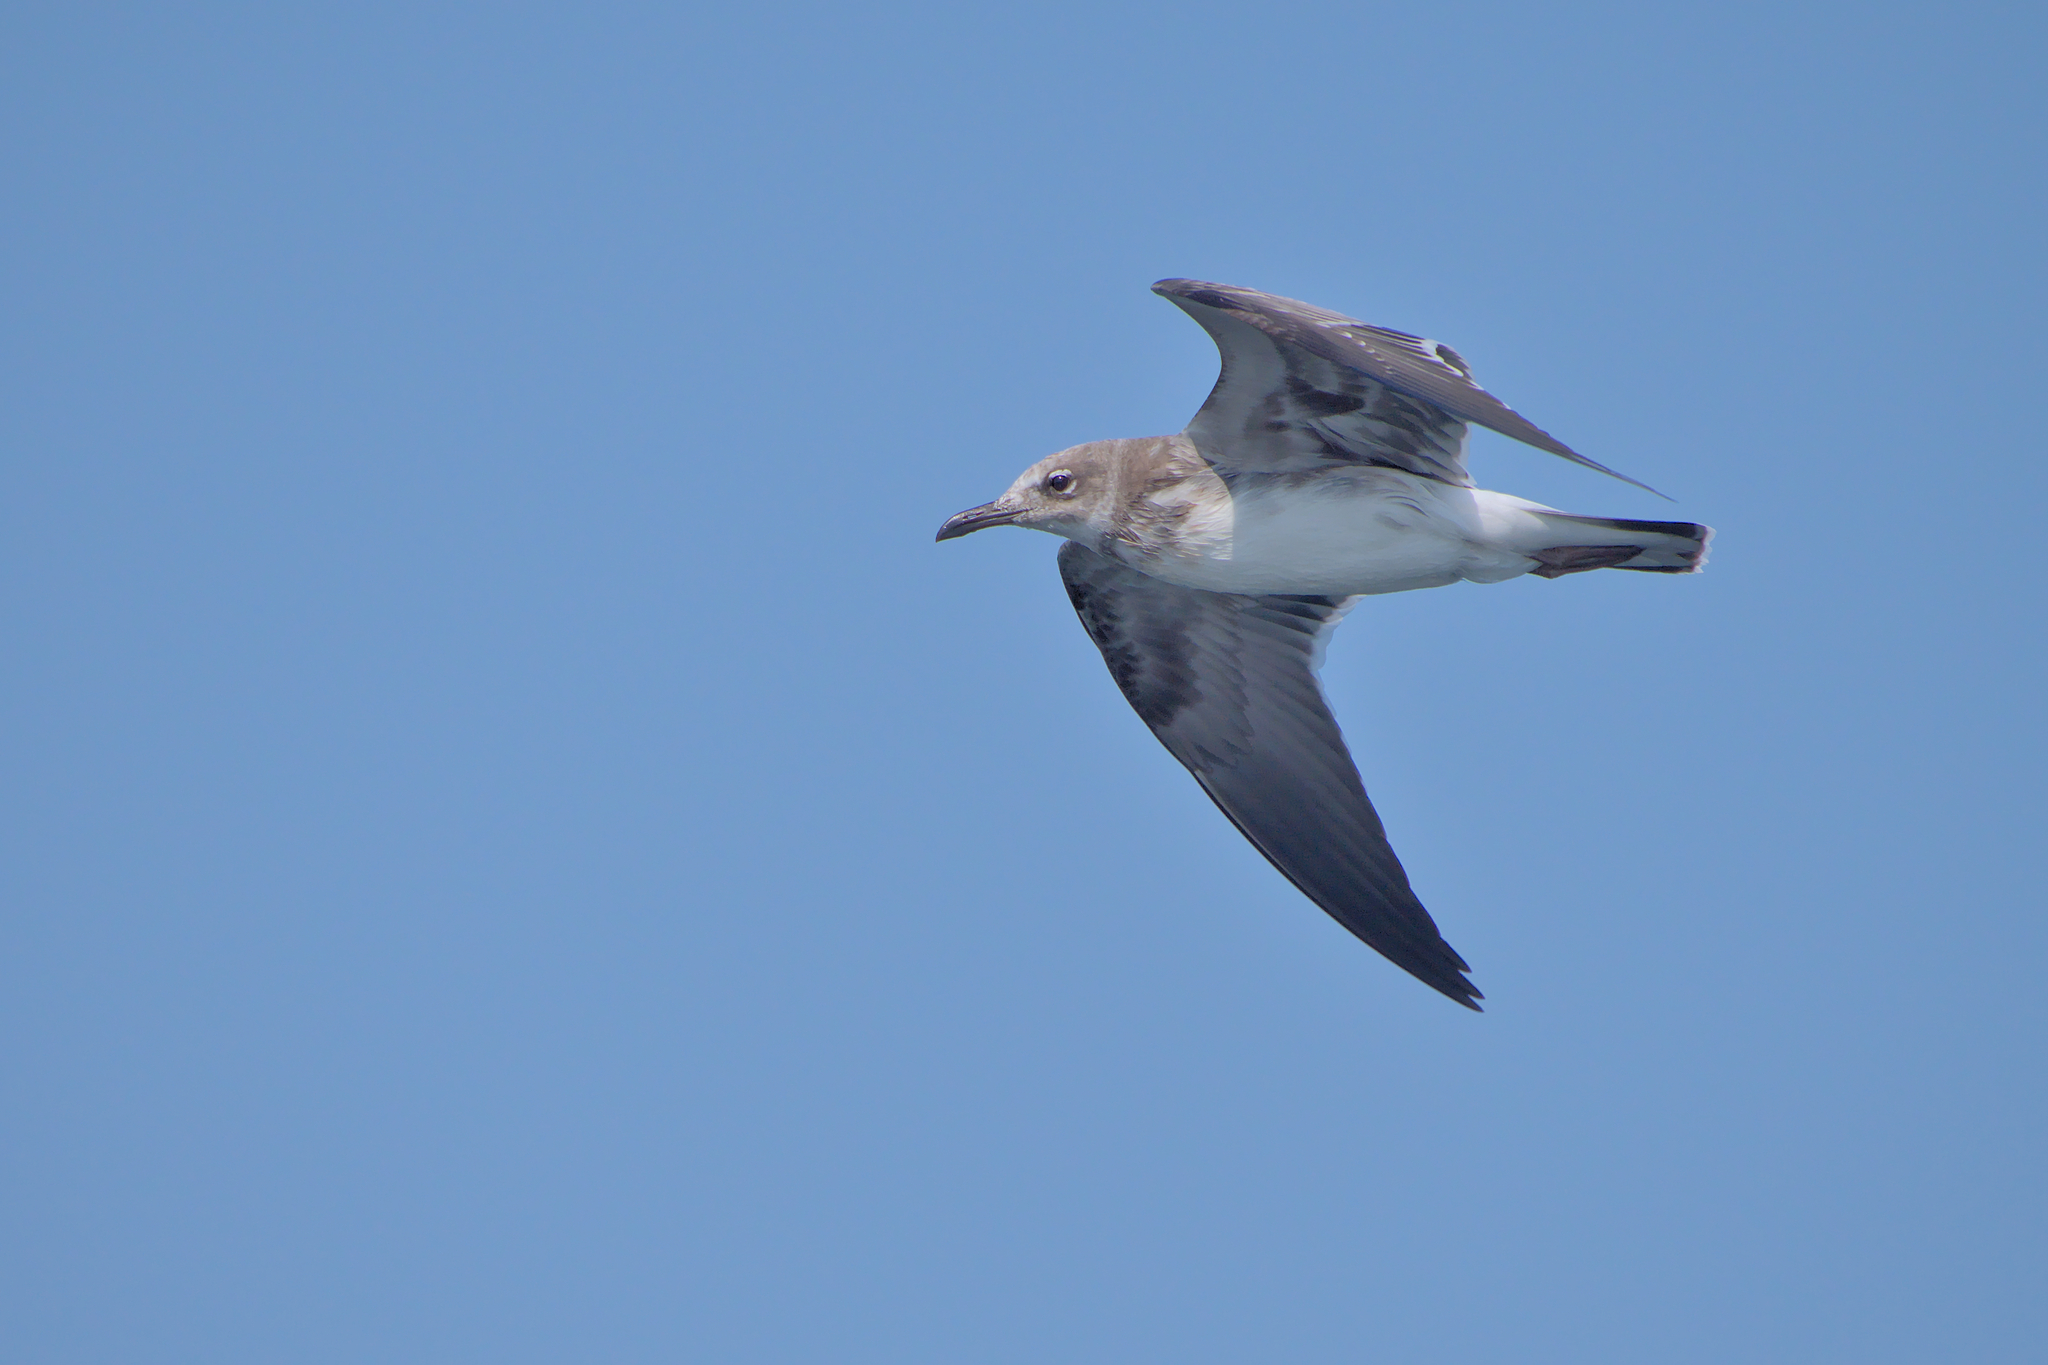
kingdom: Animalia
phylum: Chordata
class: Aves
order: Charadriiformes
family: Laridae
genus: Leucophaeus
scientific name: Leucophaeus atricilla
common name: Laughing gull
